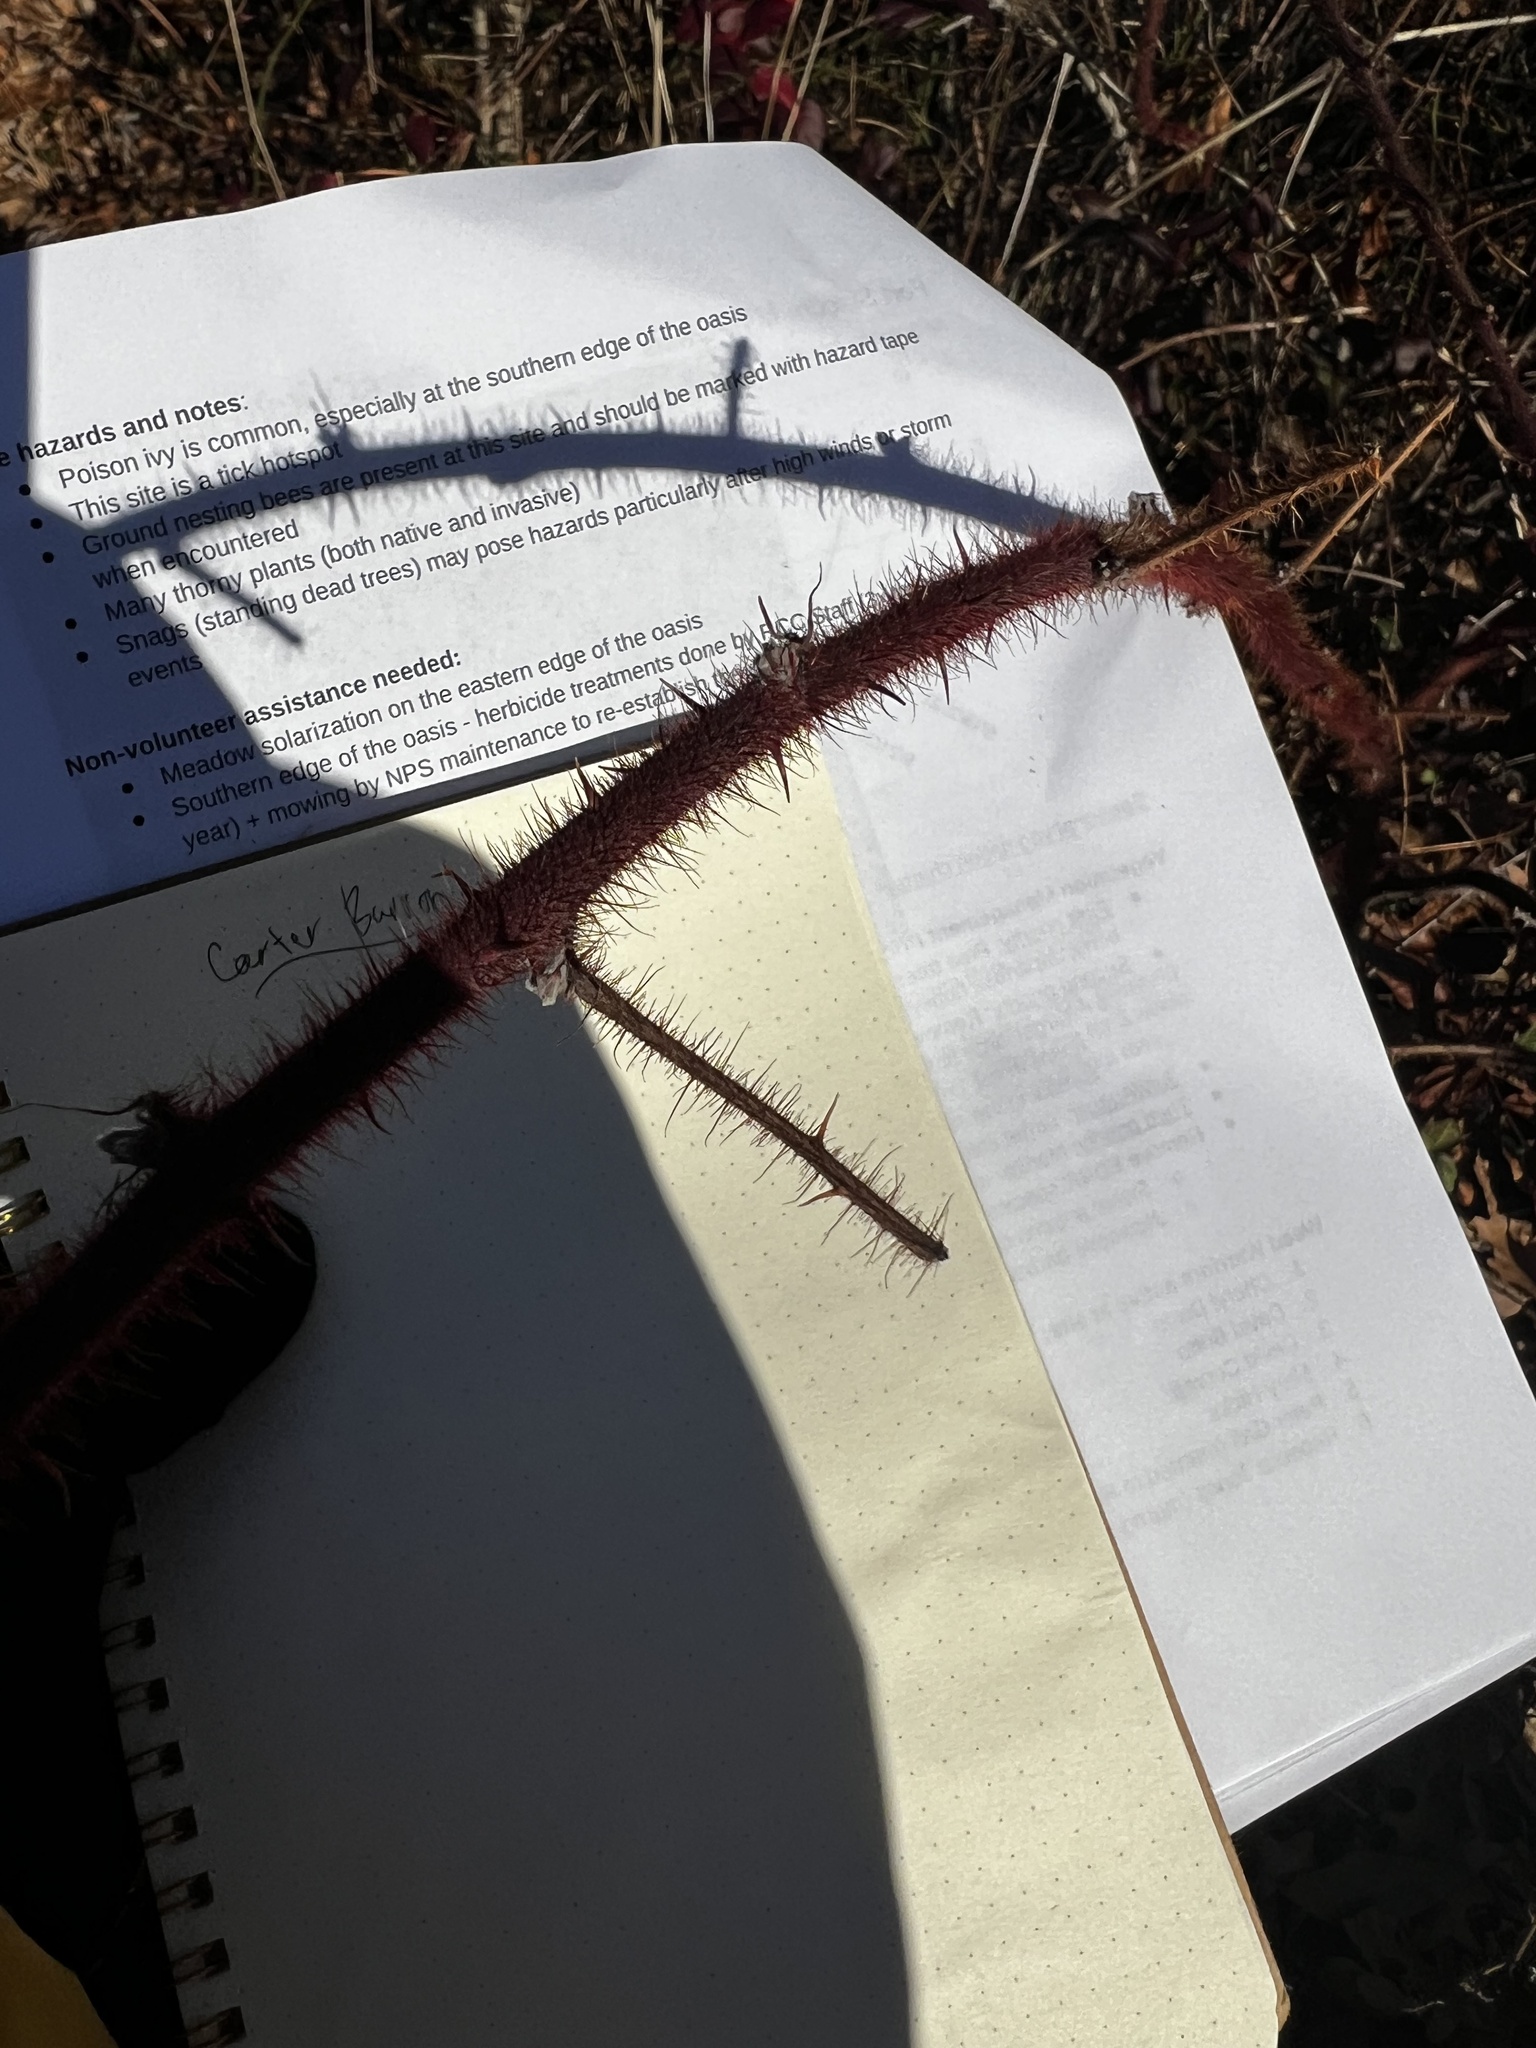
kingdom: Plantae
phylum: Tracheophyta
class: Magnoliopsida
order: Rosales
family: Rosaceae
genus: Rubus
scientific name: Rubus phoenicolasius
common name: Japanese wineberry
